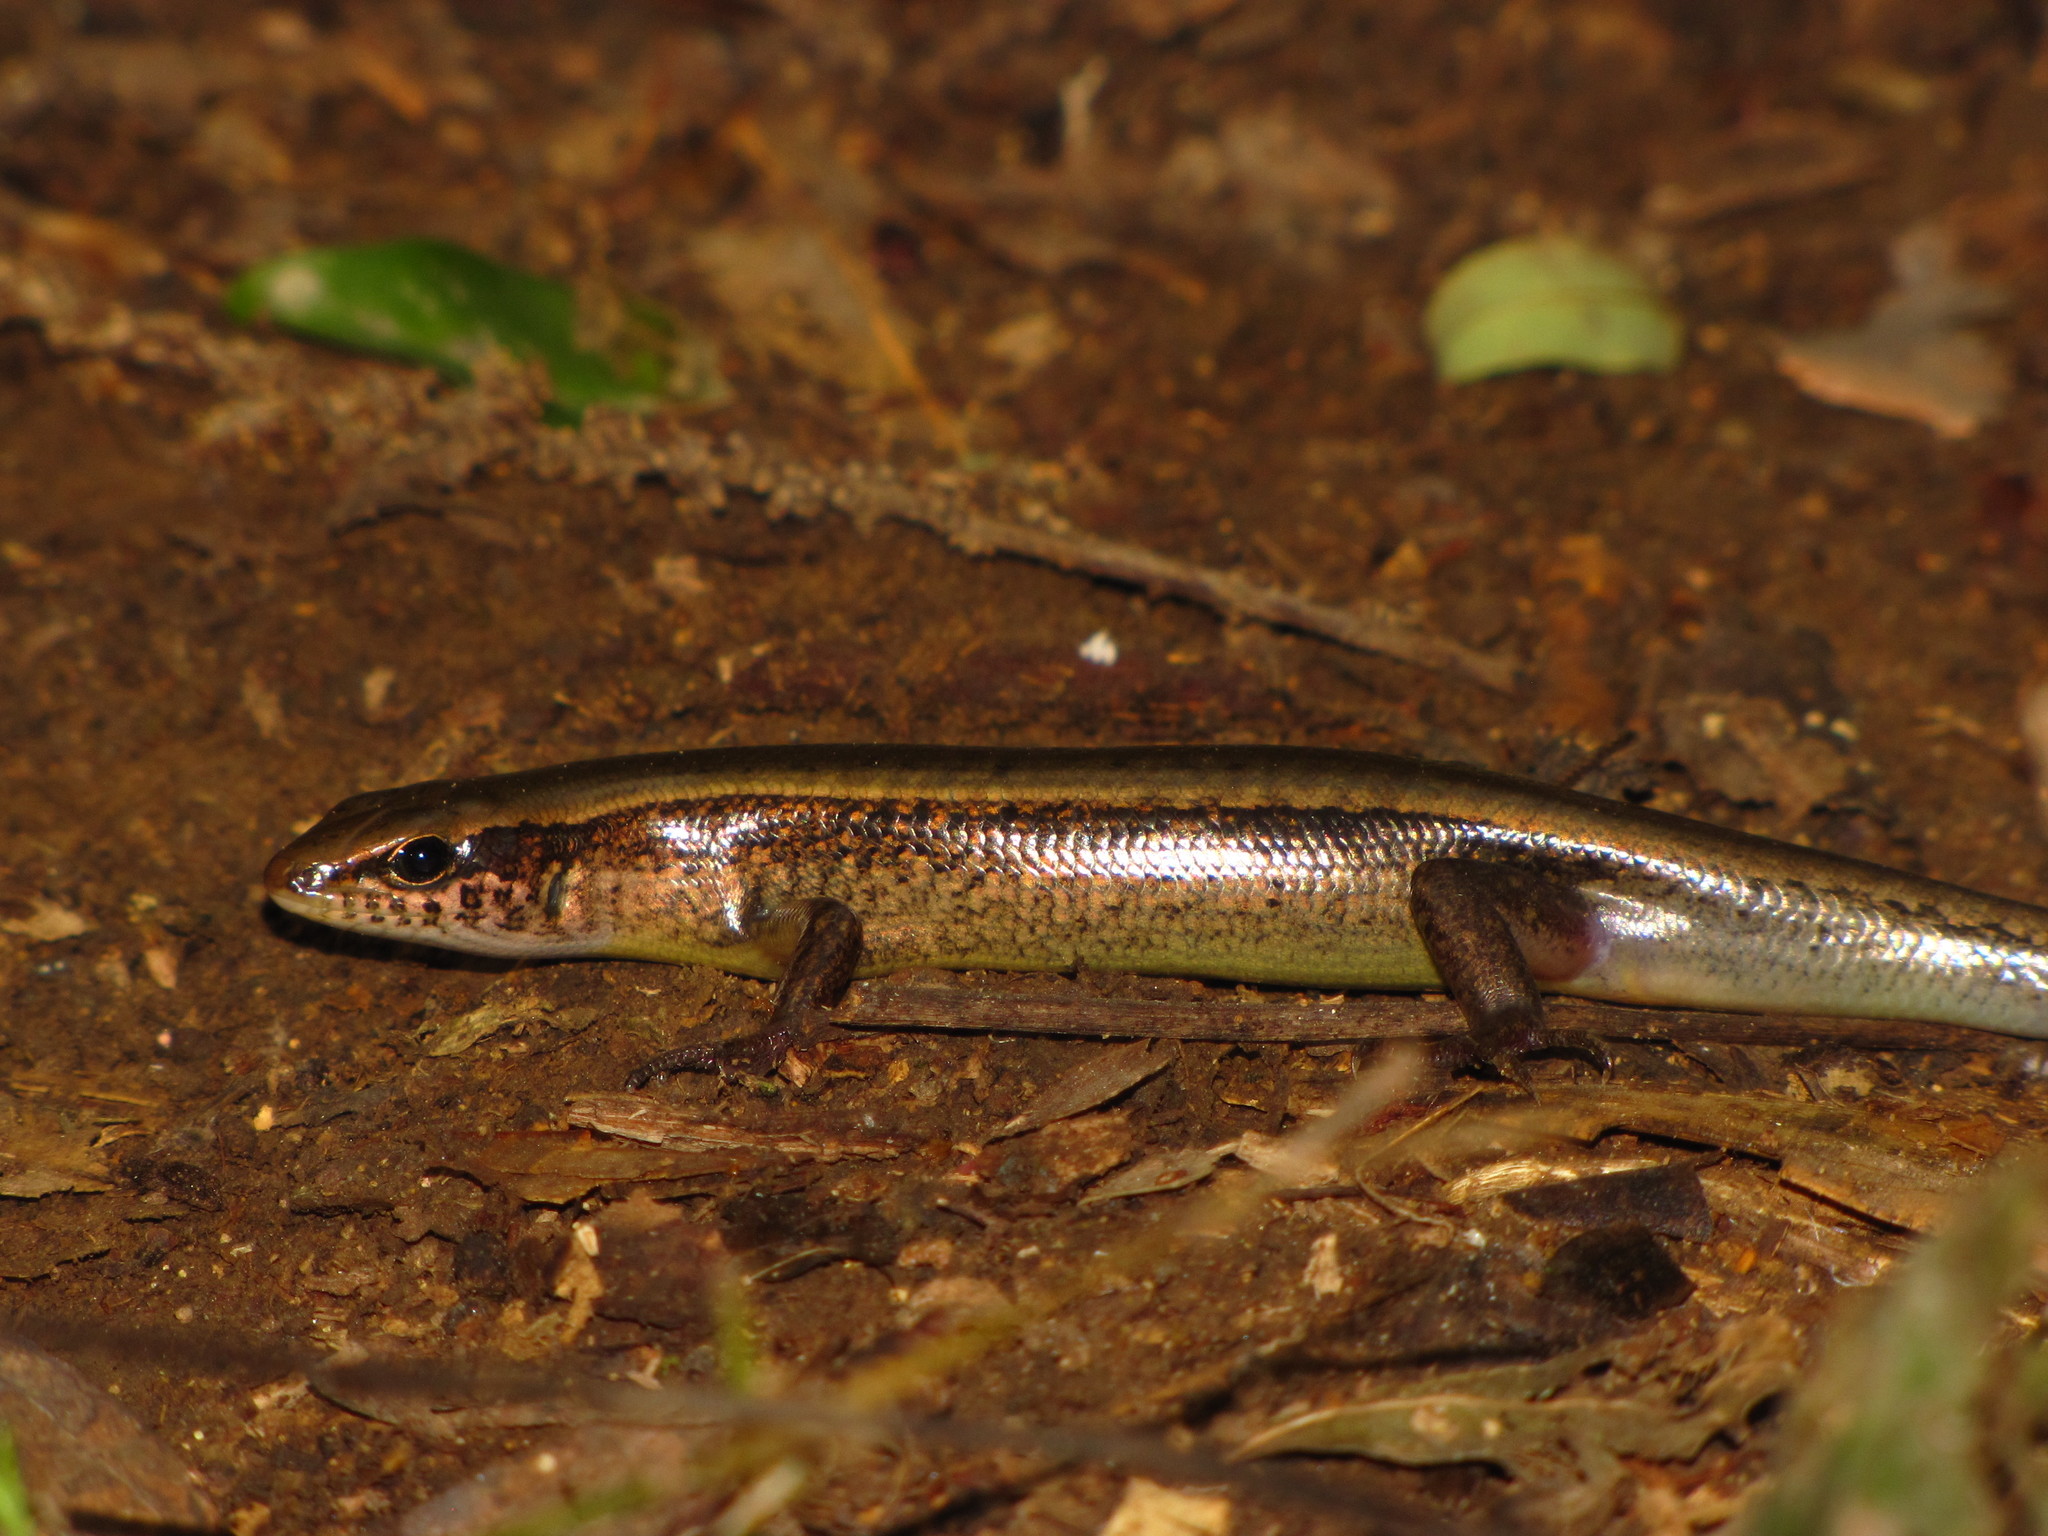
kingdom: Animalia
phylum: Chordata
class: Squamata
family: Scincidae
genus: Sphenomorphus
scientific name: Sphenomorphus indicus
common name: Himalayan forest skink
